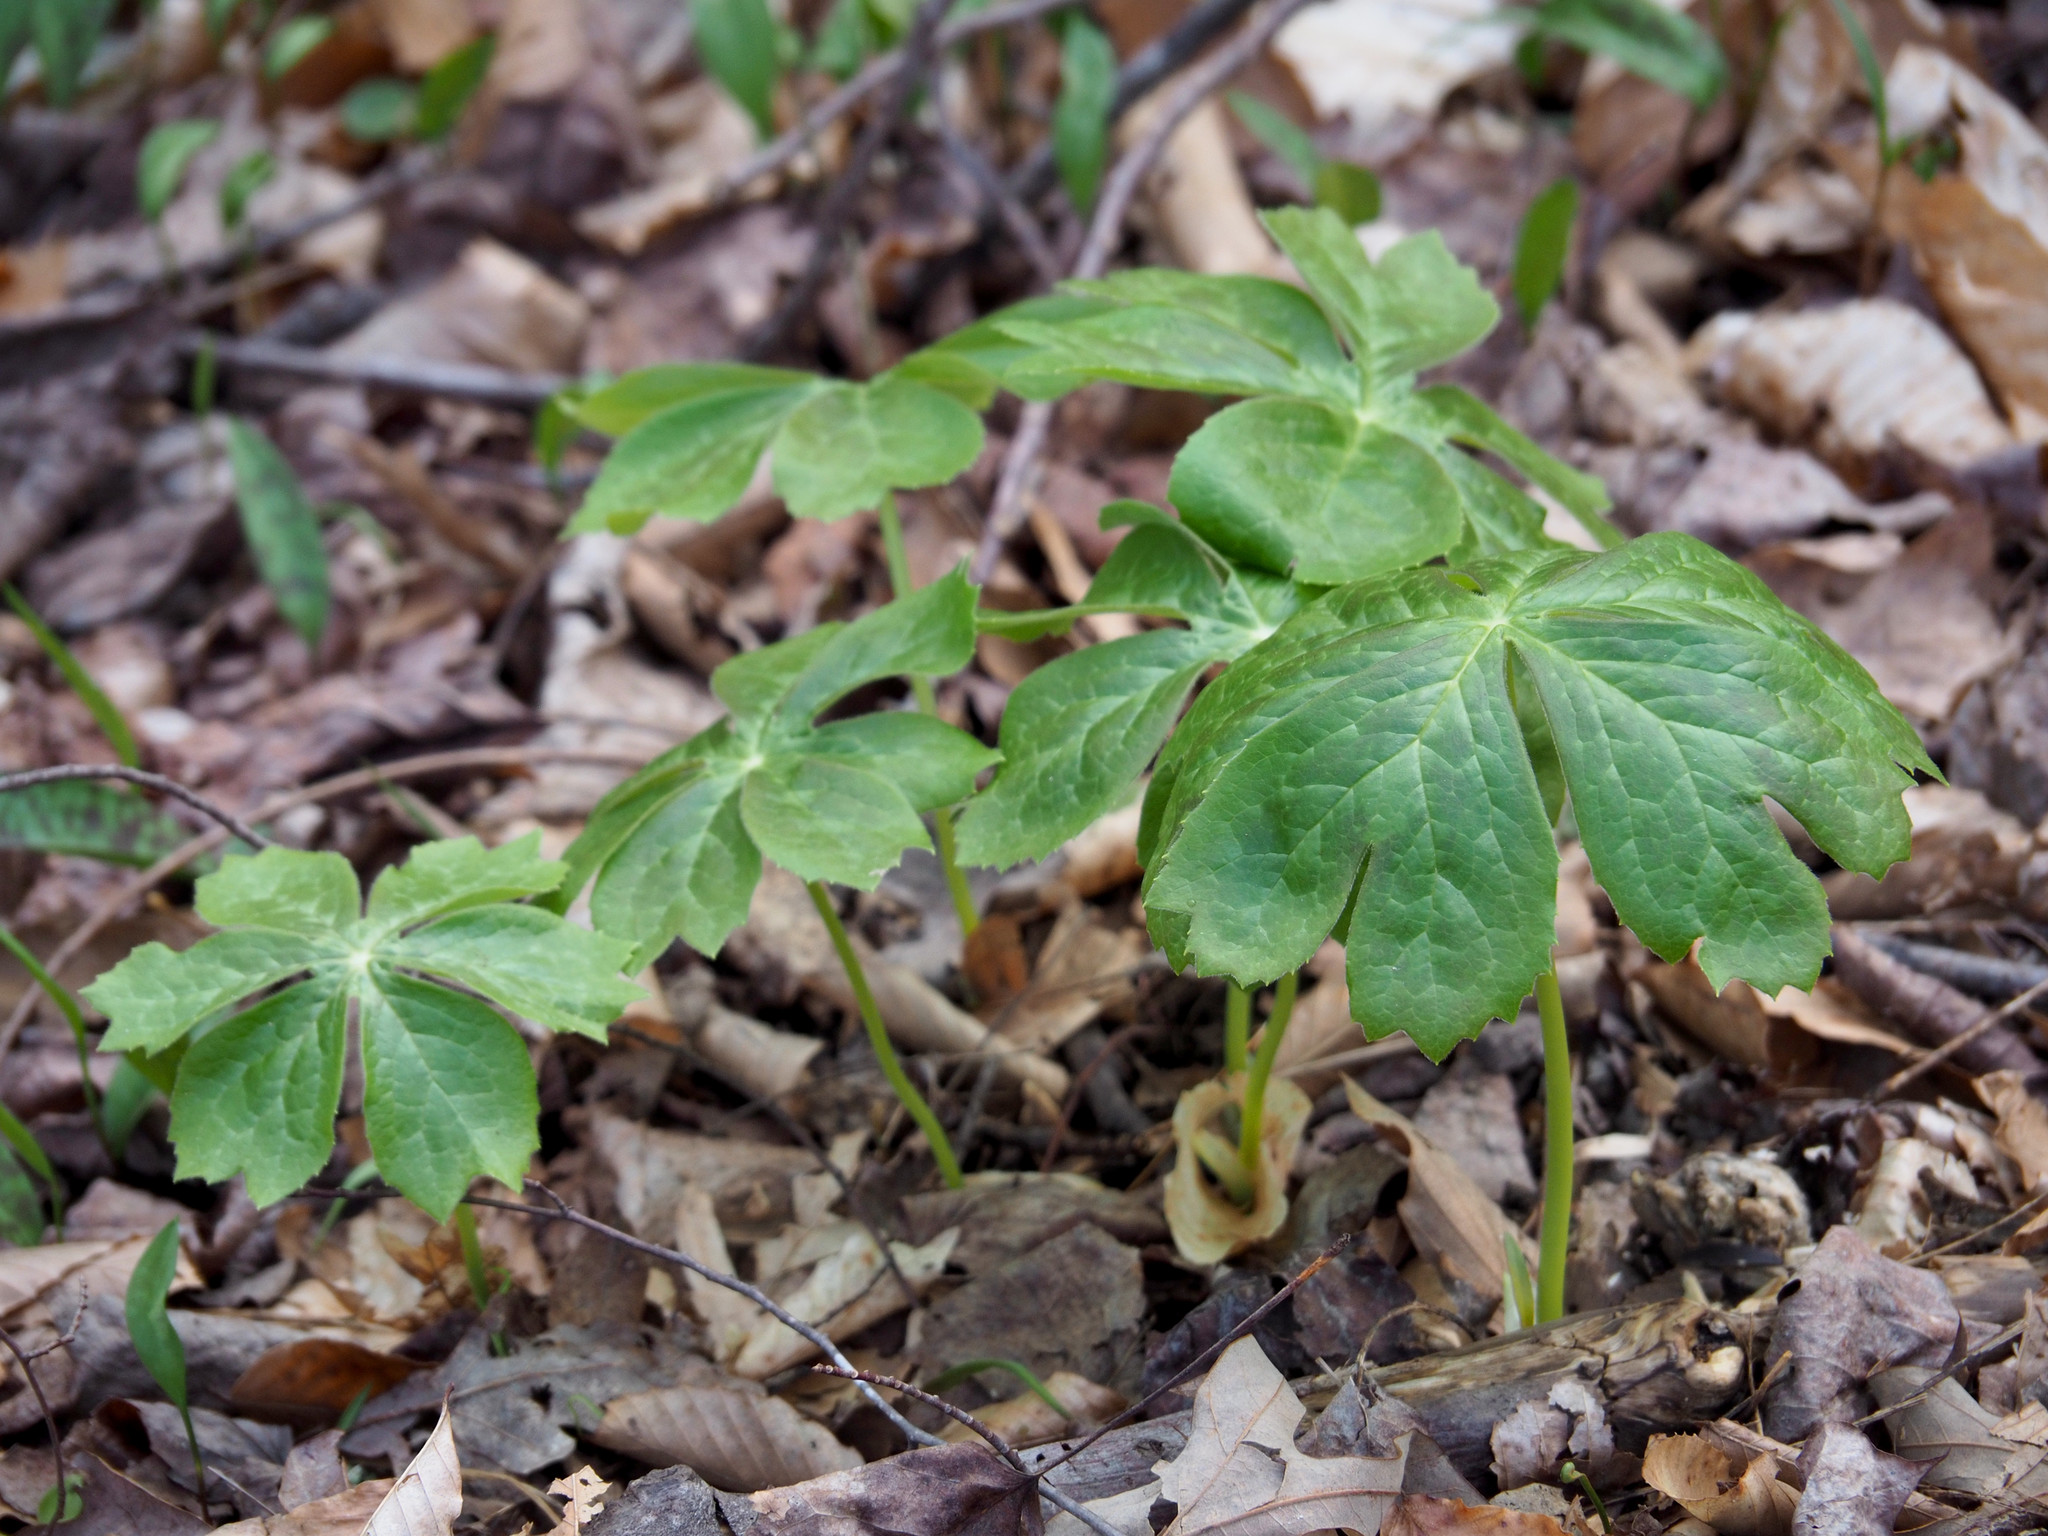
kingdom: Plantae
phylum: Tracheophyta
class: Magnoliopsida
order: Ranunculales
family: Berberidaceae
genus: Podophyllum
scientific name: Podophyllum peltatum
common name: Wild mandrake
